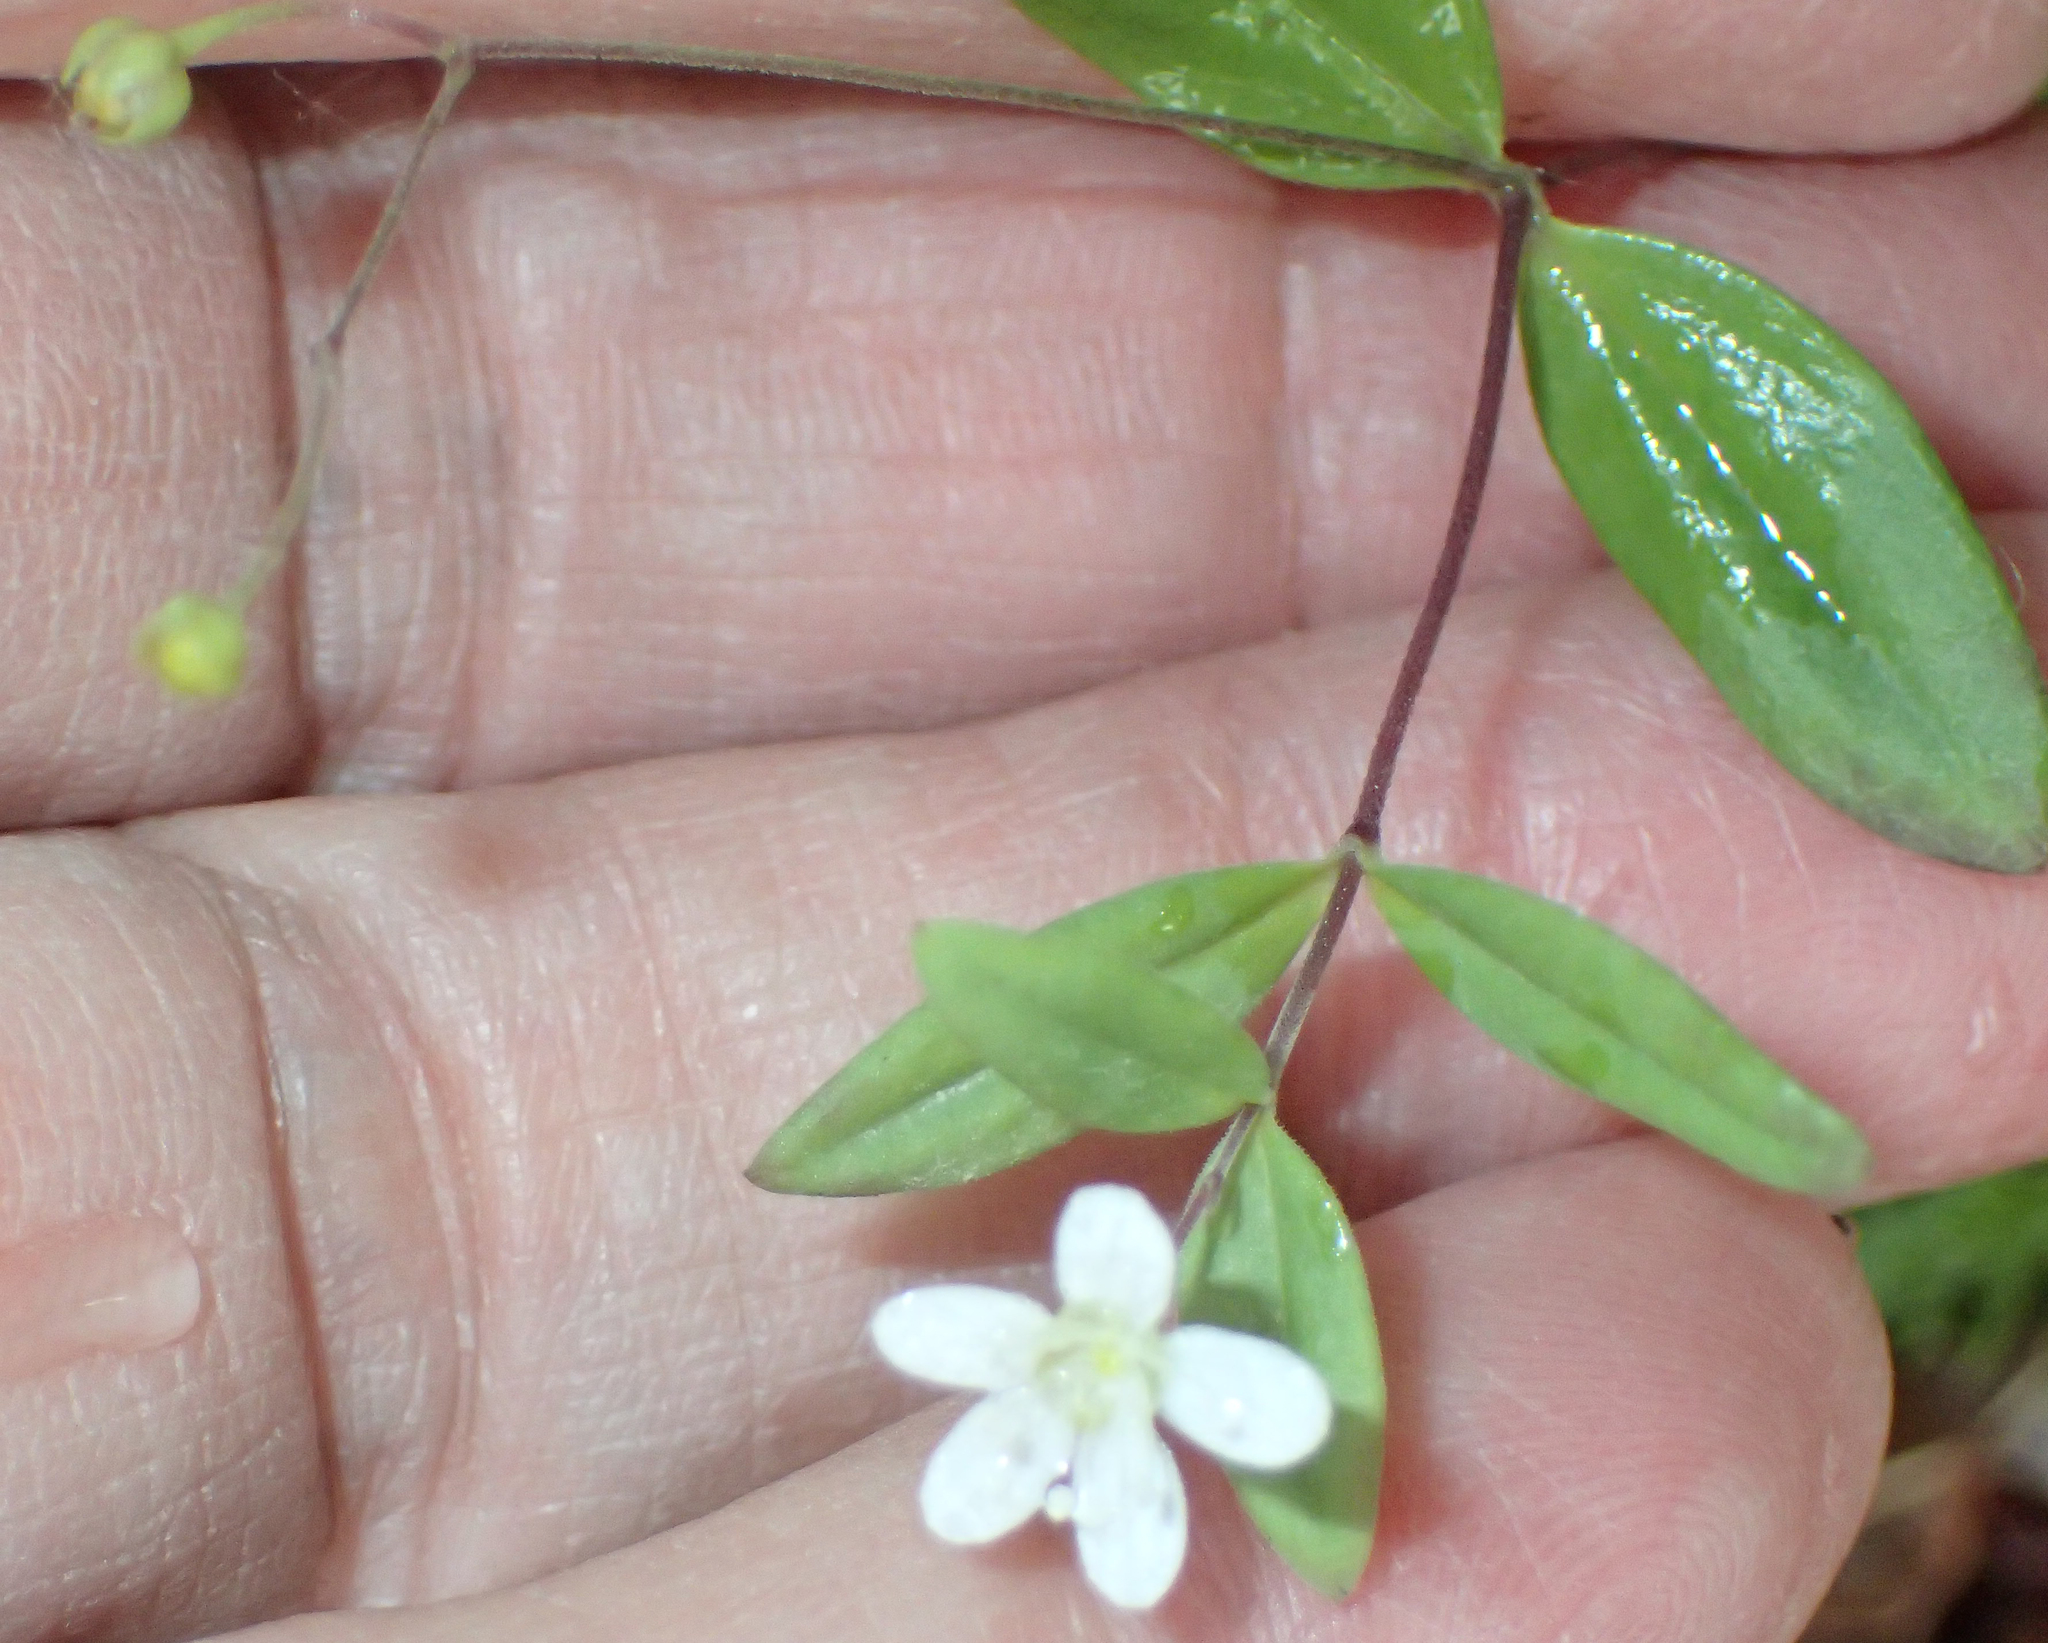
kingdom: Plantae
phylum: Tracheophyta
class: Magnoliopsida
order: Caryophyllales
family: Caryophyllaceae
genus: Moehringia
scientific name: Moehringia lateriflora
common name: Blunt-leaved sandwort
